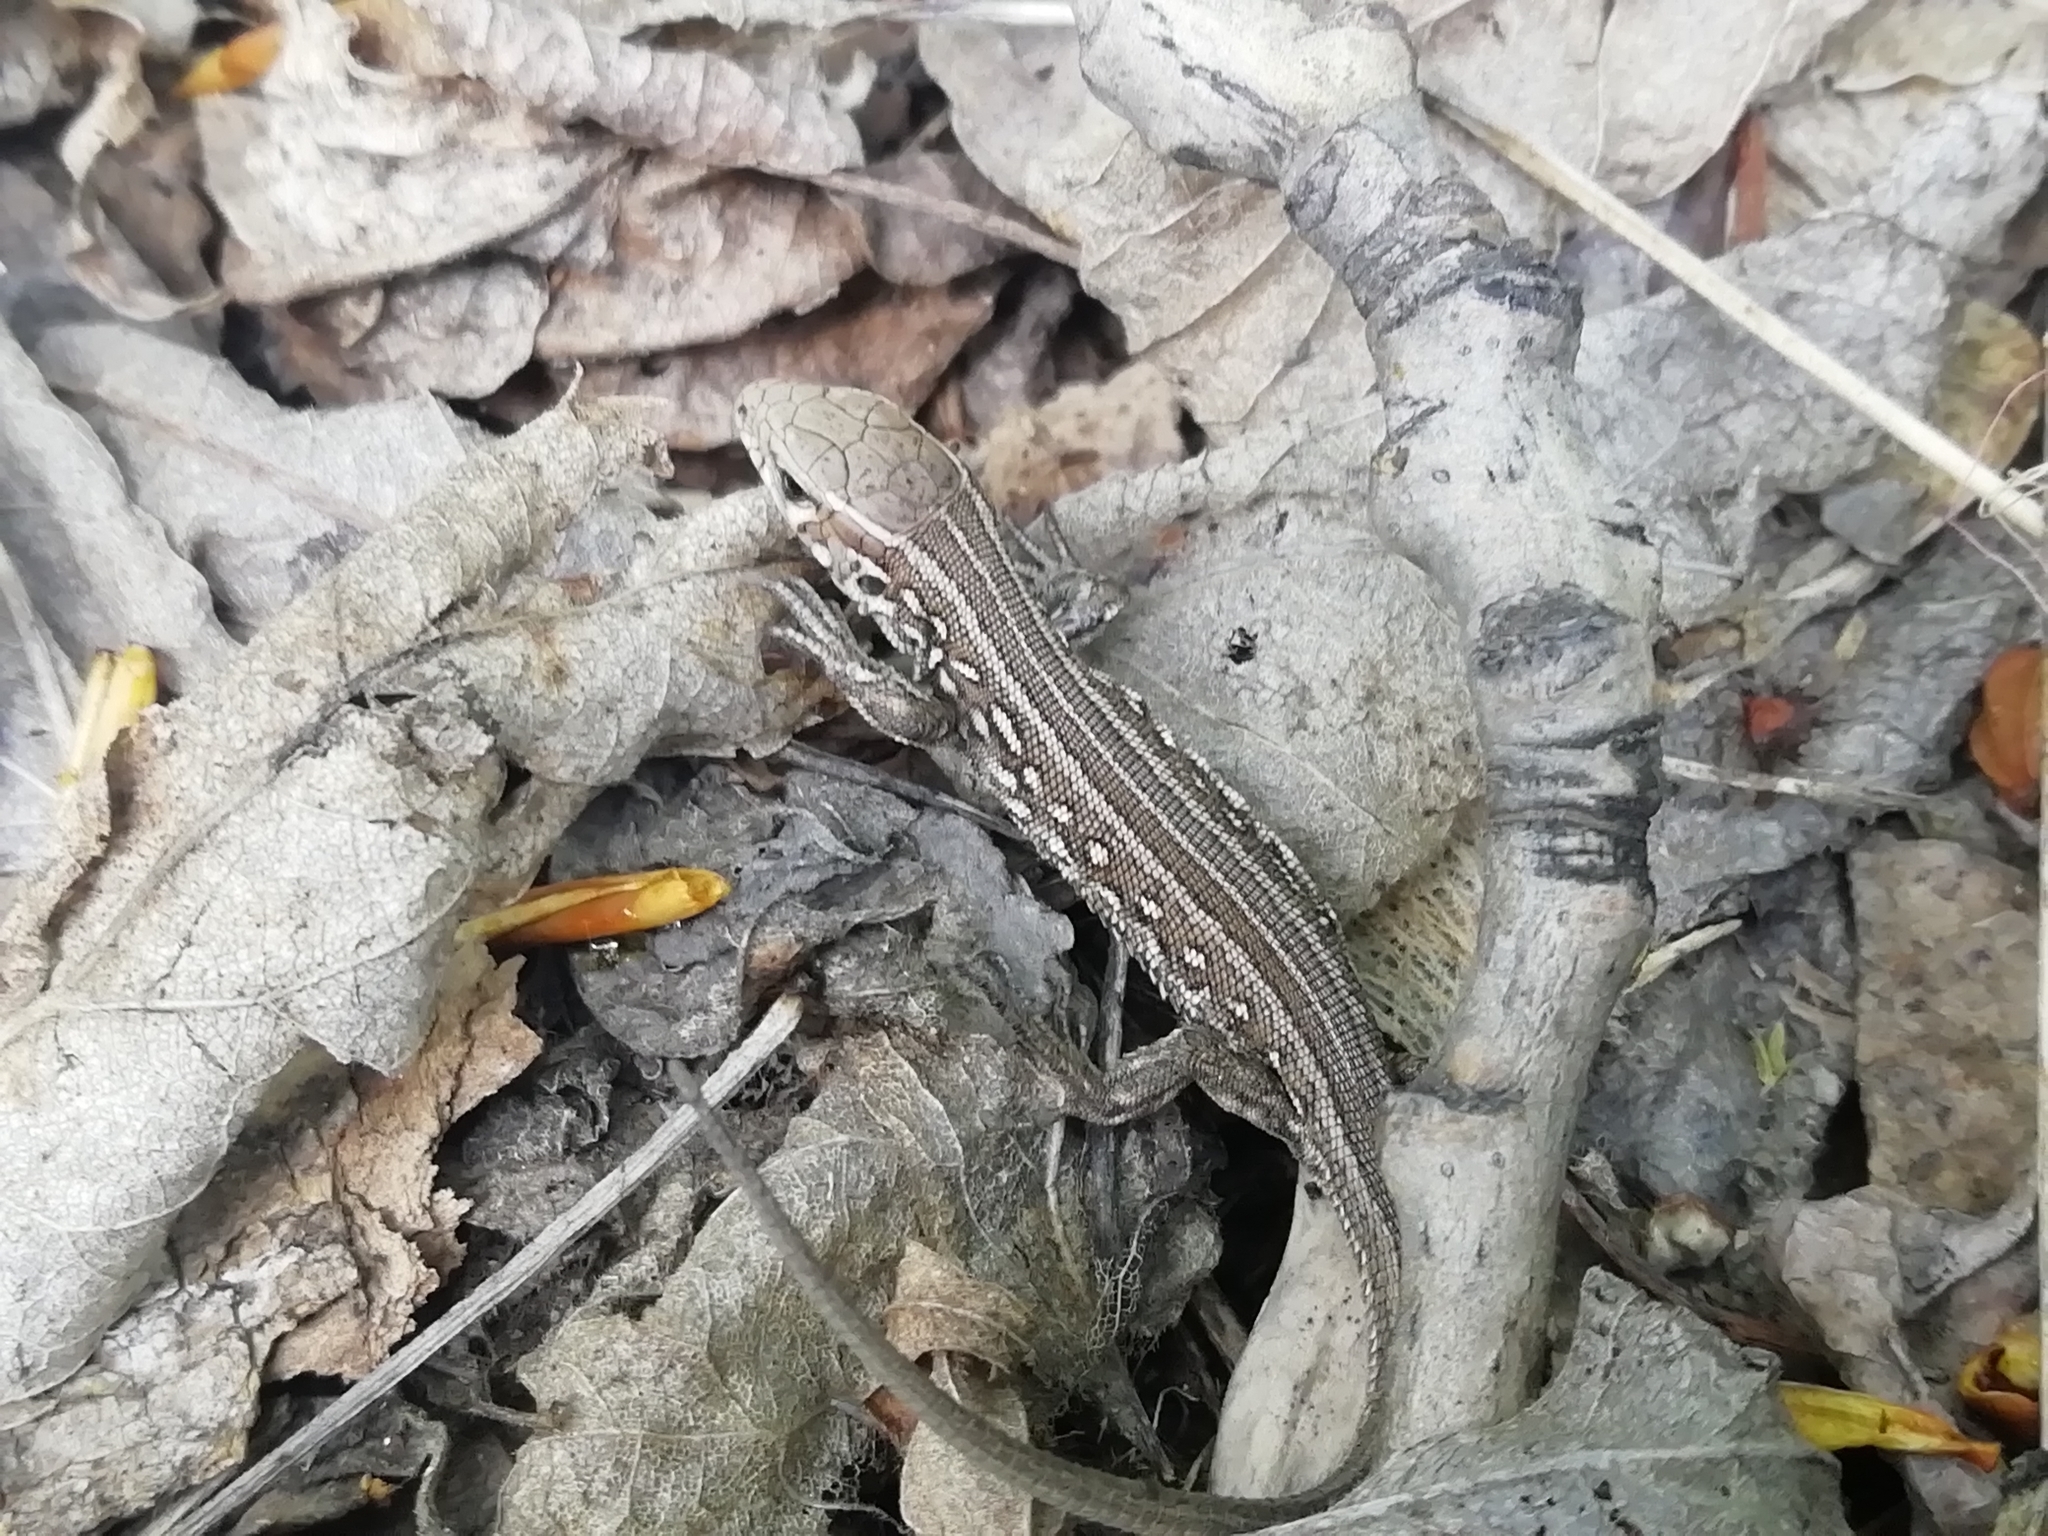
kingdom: Animalia
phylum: Chordata
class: Squamata
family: Lacertidae
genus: Lacerta
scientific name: Lacerta agilis
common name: Sand lizard
